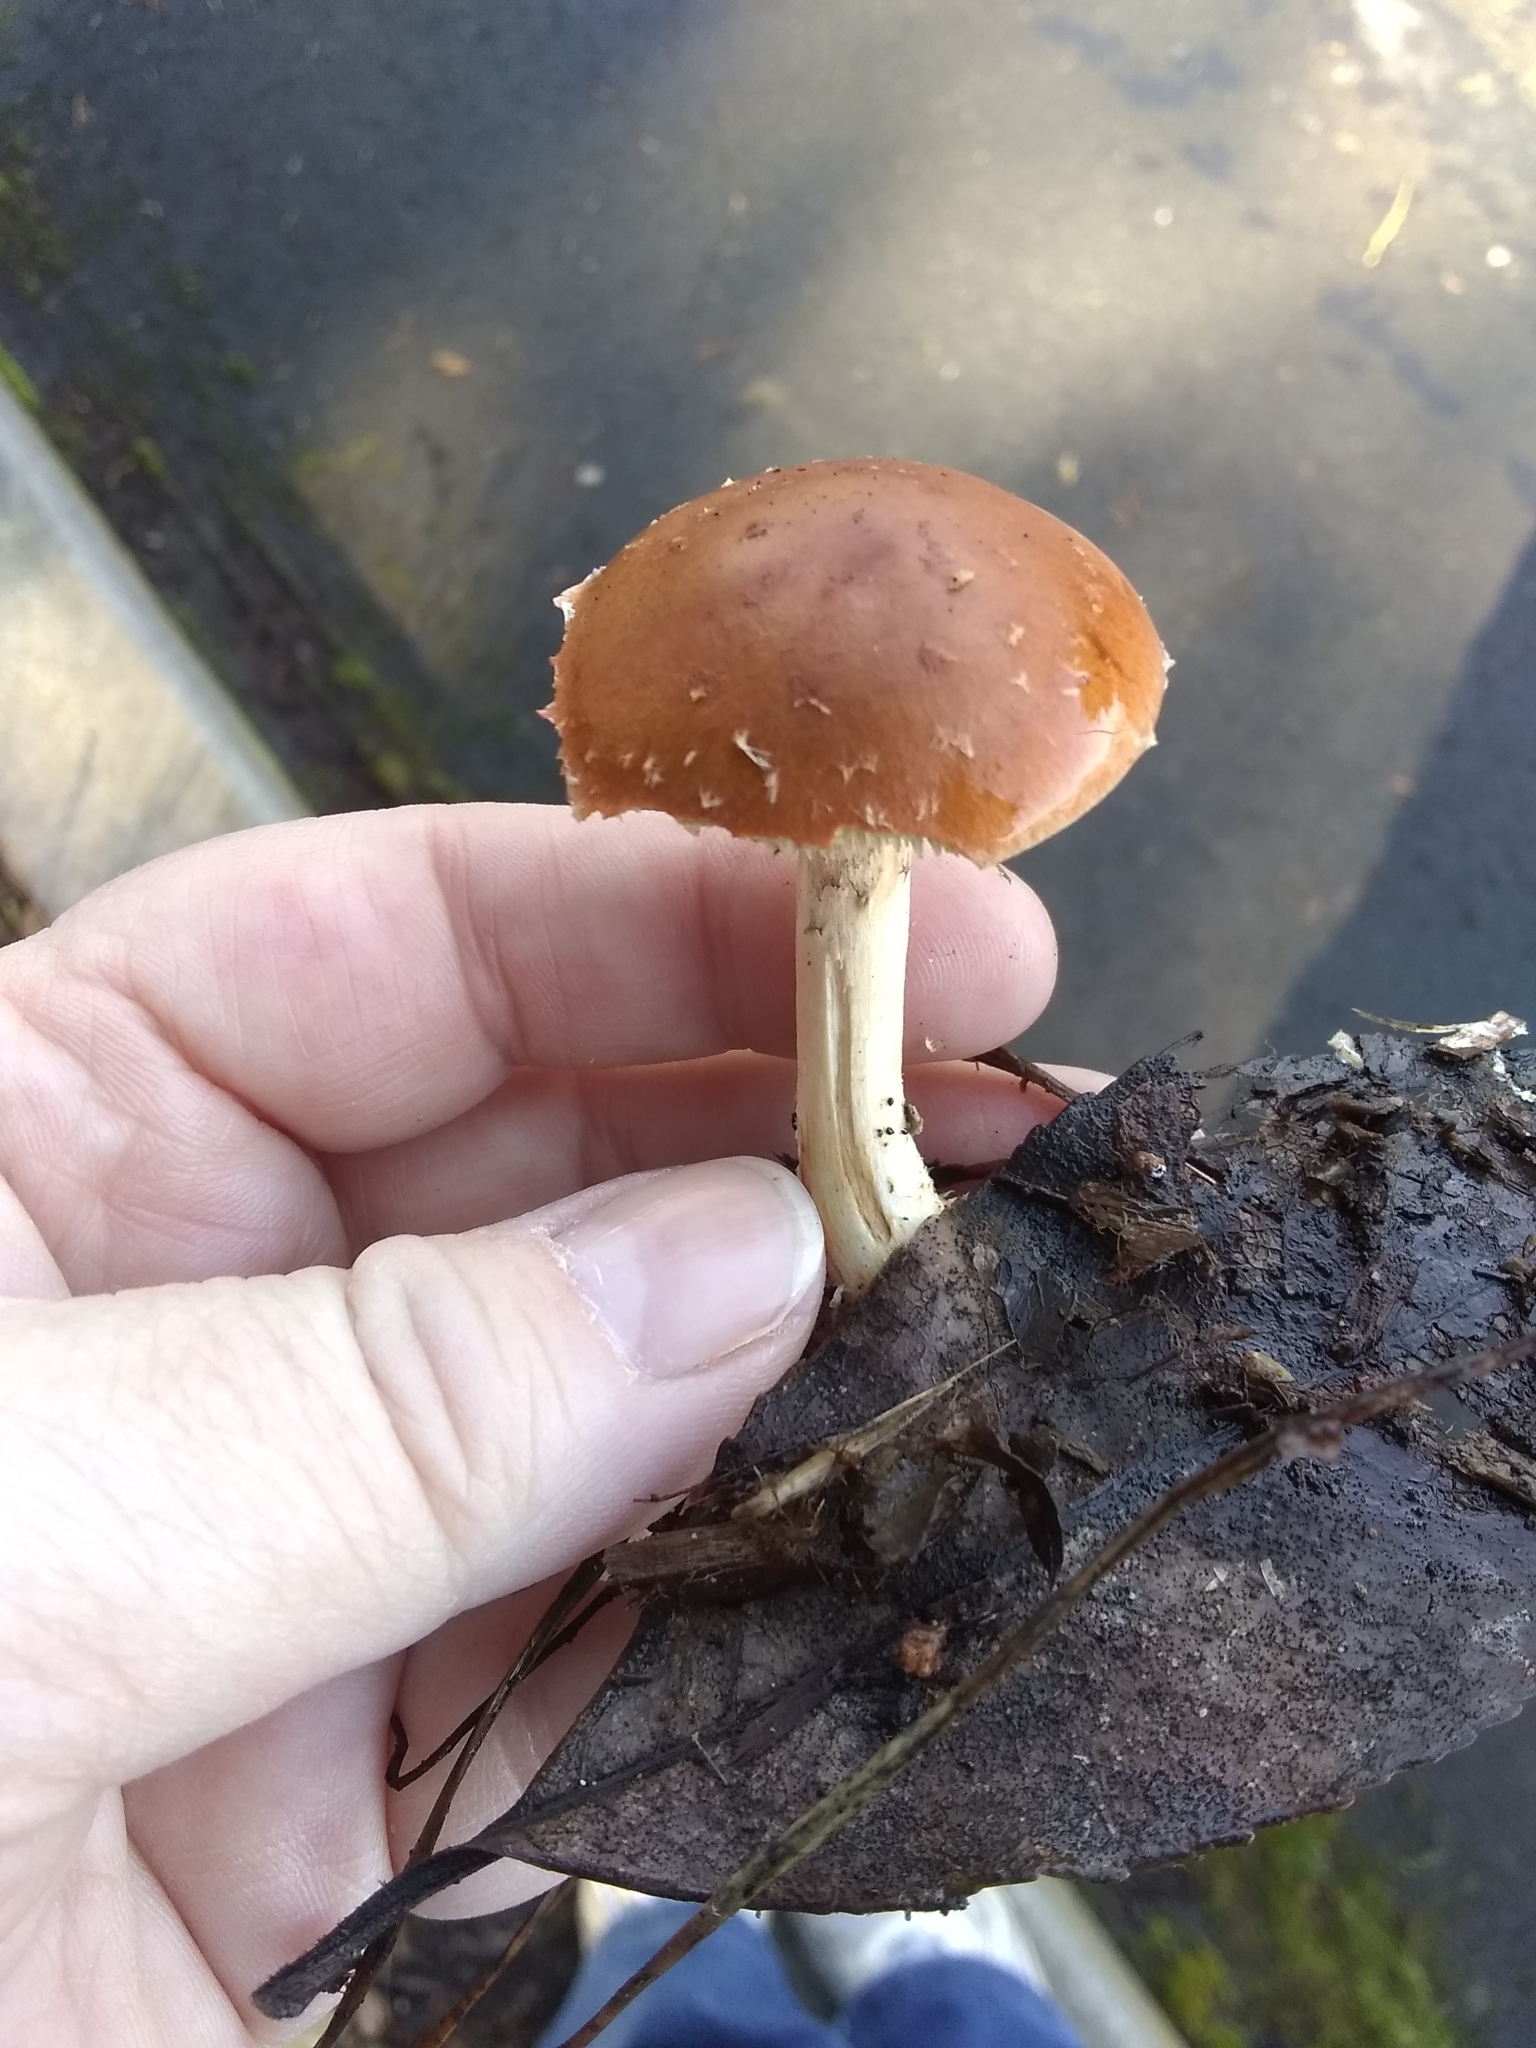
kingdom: Fungi
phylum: Basidiomycota
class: Agaricomycetes
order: Agaricales
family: Strophariaceae
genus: Leratiomyces
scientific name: Leratiomyces ceres
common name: Redlead roundhead
